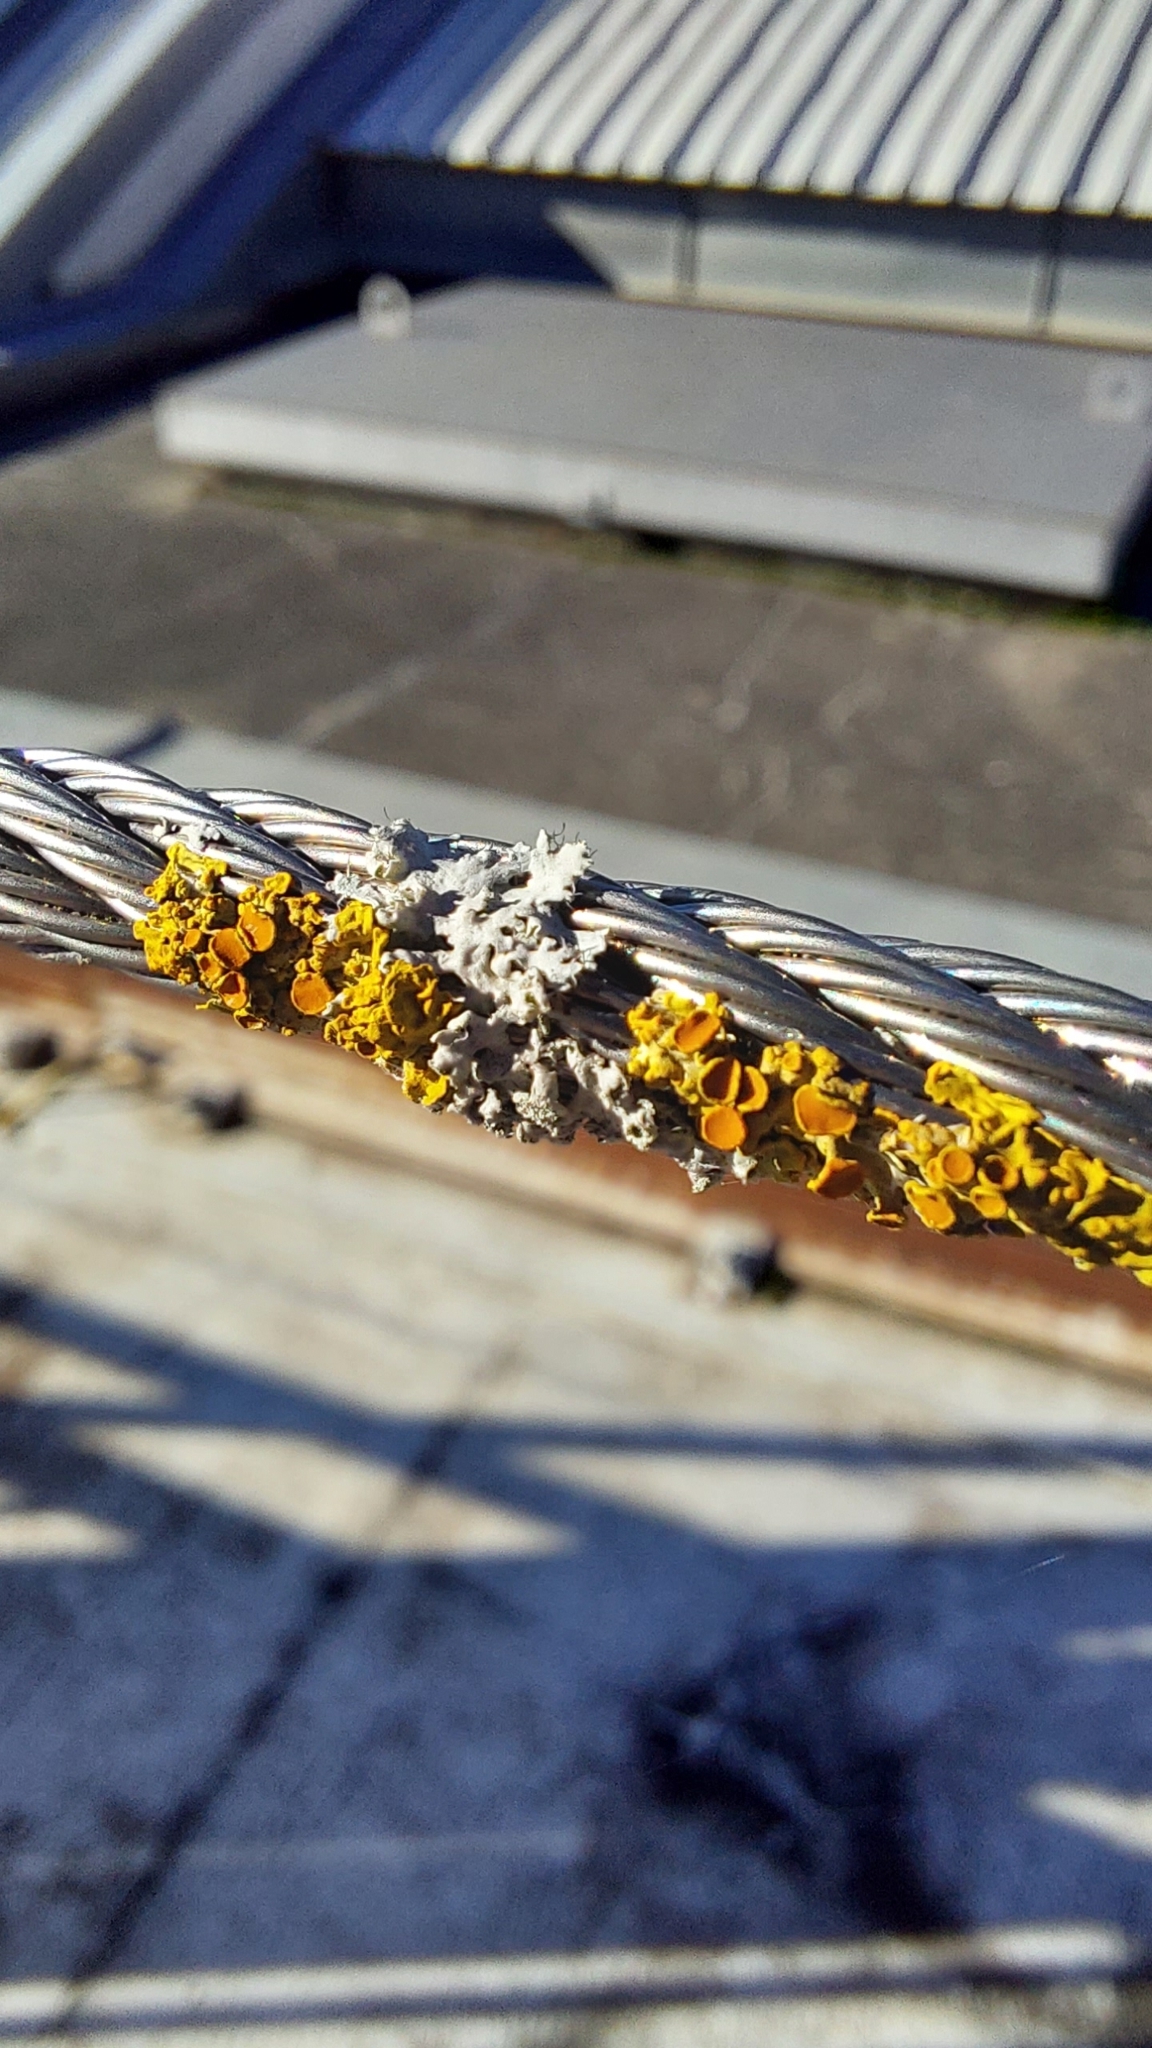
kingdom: Fungi
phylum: Ascomycota
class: Lecanoromycetes
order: Teloschistales
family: Teloschistaceae
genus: Xanthoria
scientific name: Xanthoria parietina
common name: Common orange lichen
